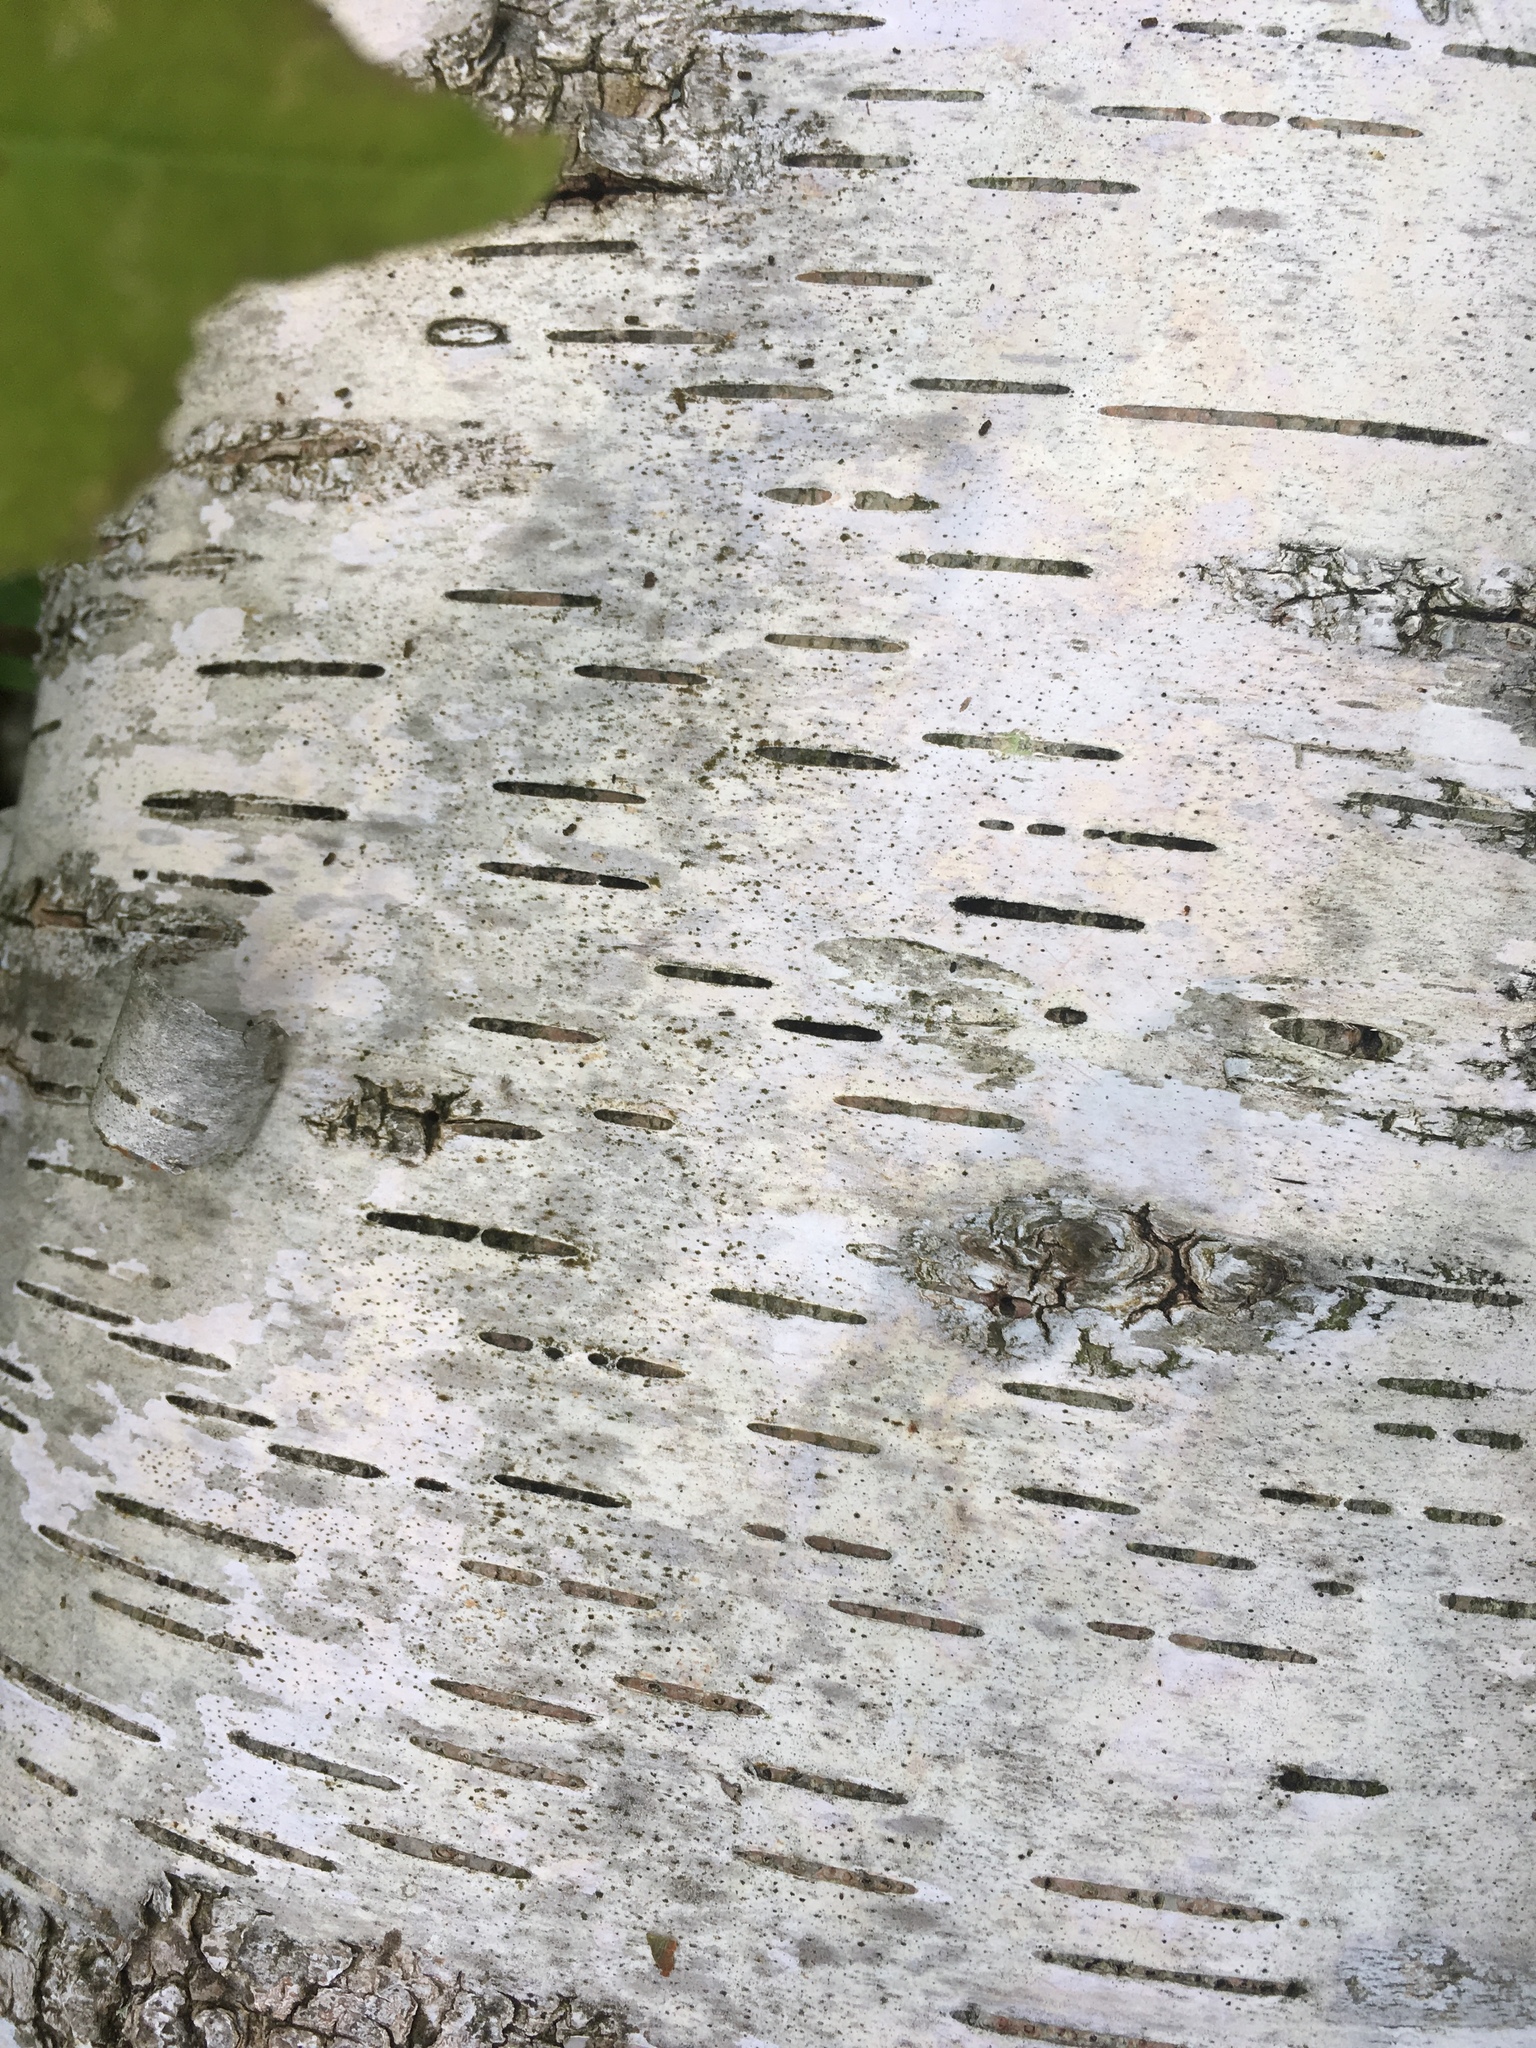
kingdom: Plantae
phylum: Tracheophyta
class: Magnoliopsida
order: Fagales
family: Betulaceae
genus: Betula
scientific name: Betula papyrifera
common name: Paper birch
